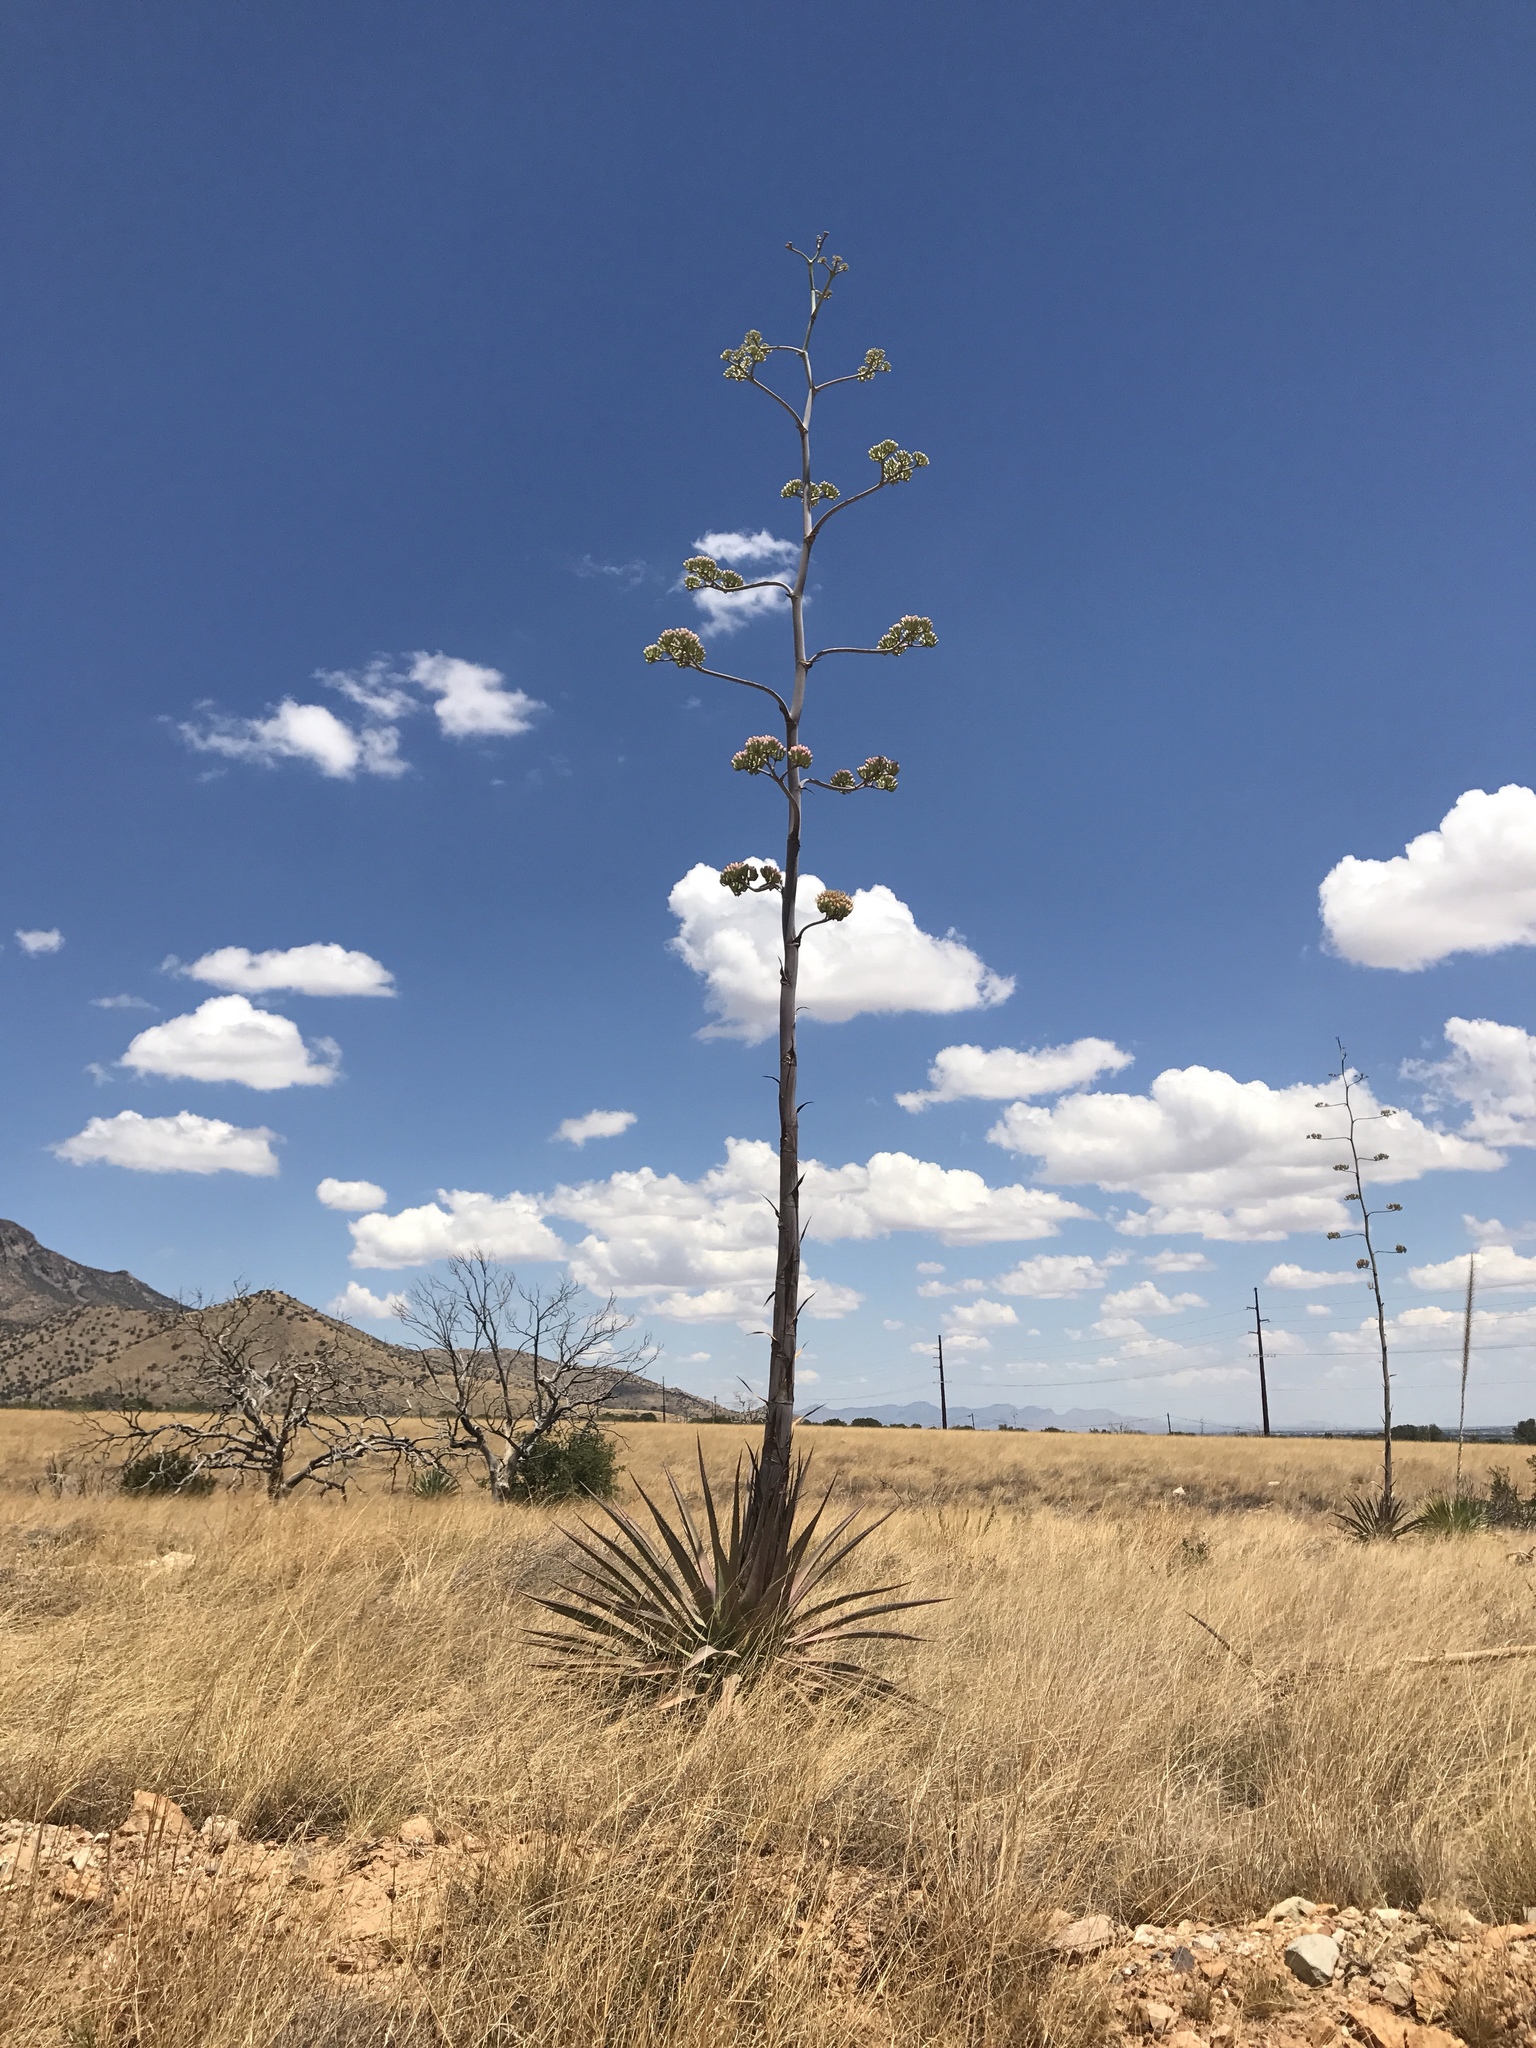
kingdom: Plantae
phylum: Tracheophyta
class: Liliopsida
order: Asparagales
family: Asparagaceae
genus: Agave
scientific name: Agave palmeri
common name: Palmer agave
